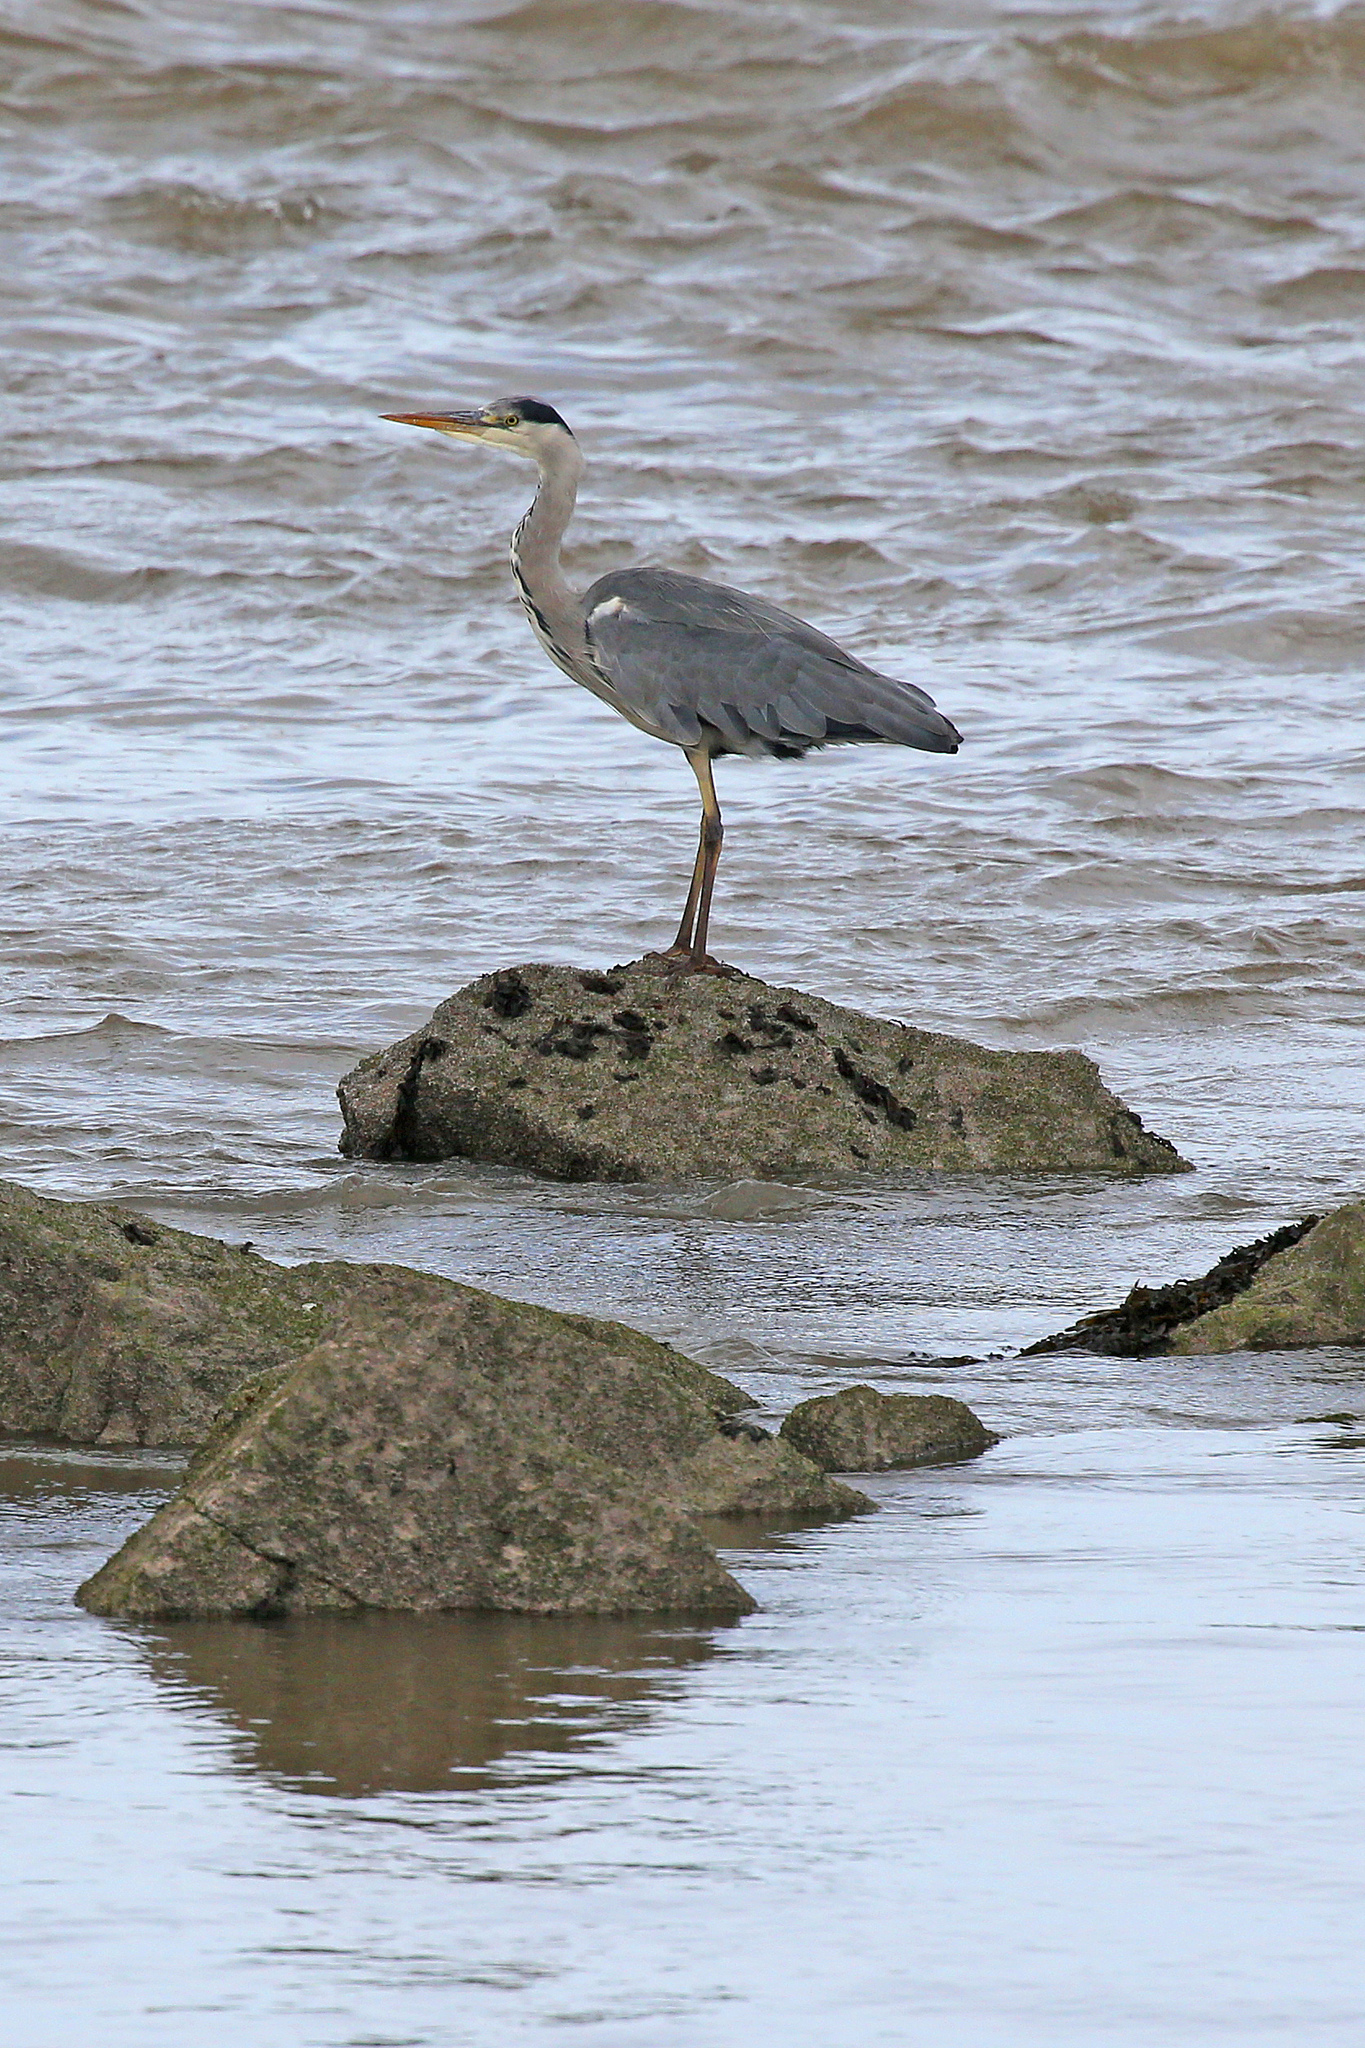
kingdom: Animalia
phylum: Chordata
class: Aves
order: Pelecaniformes
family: Ardeidae
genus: Ardea
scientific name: Ardea cinerea
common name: Grey heron
